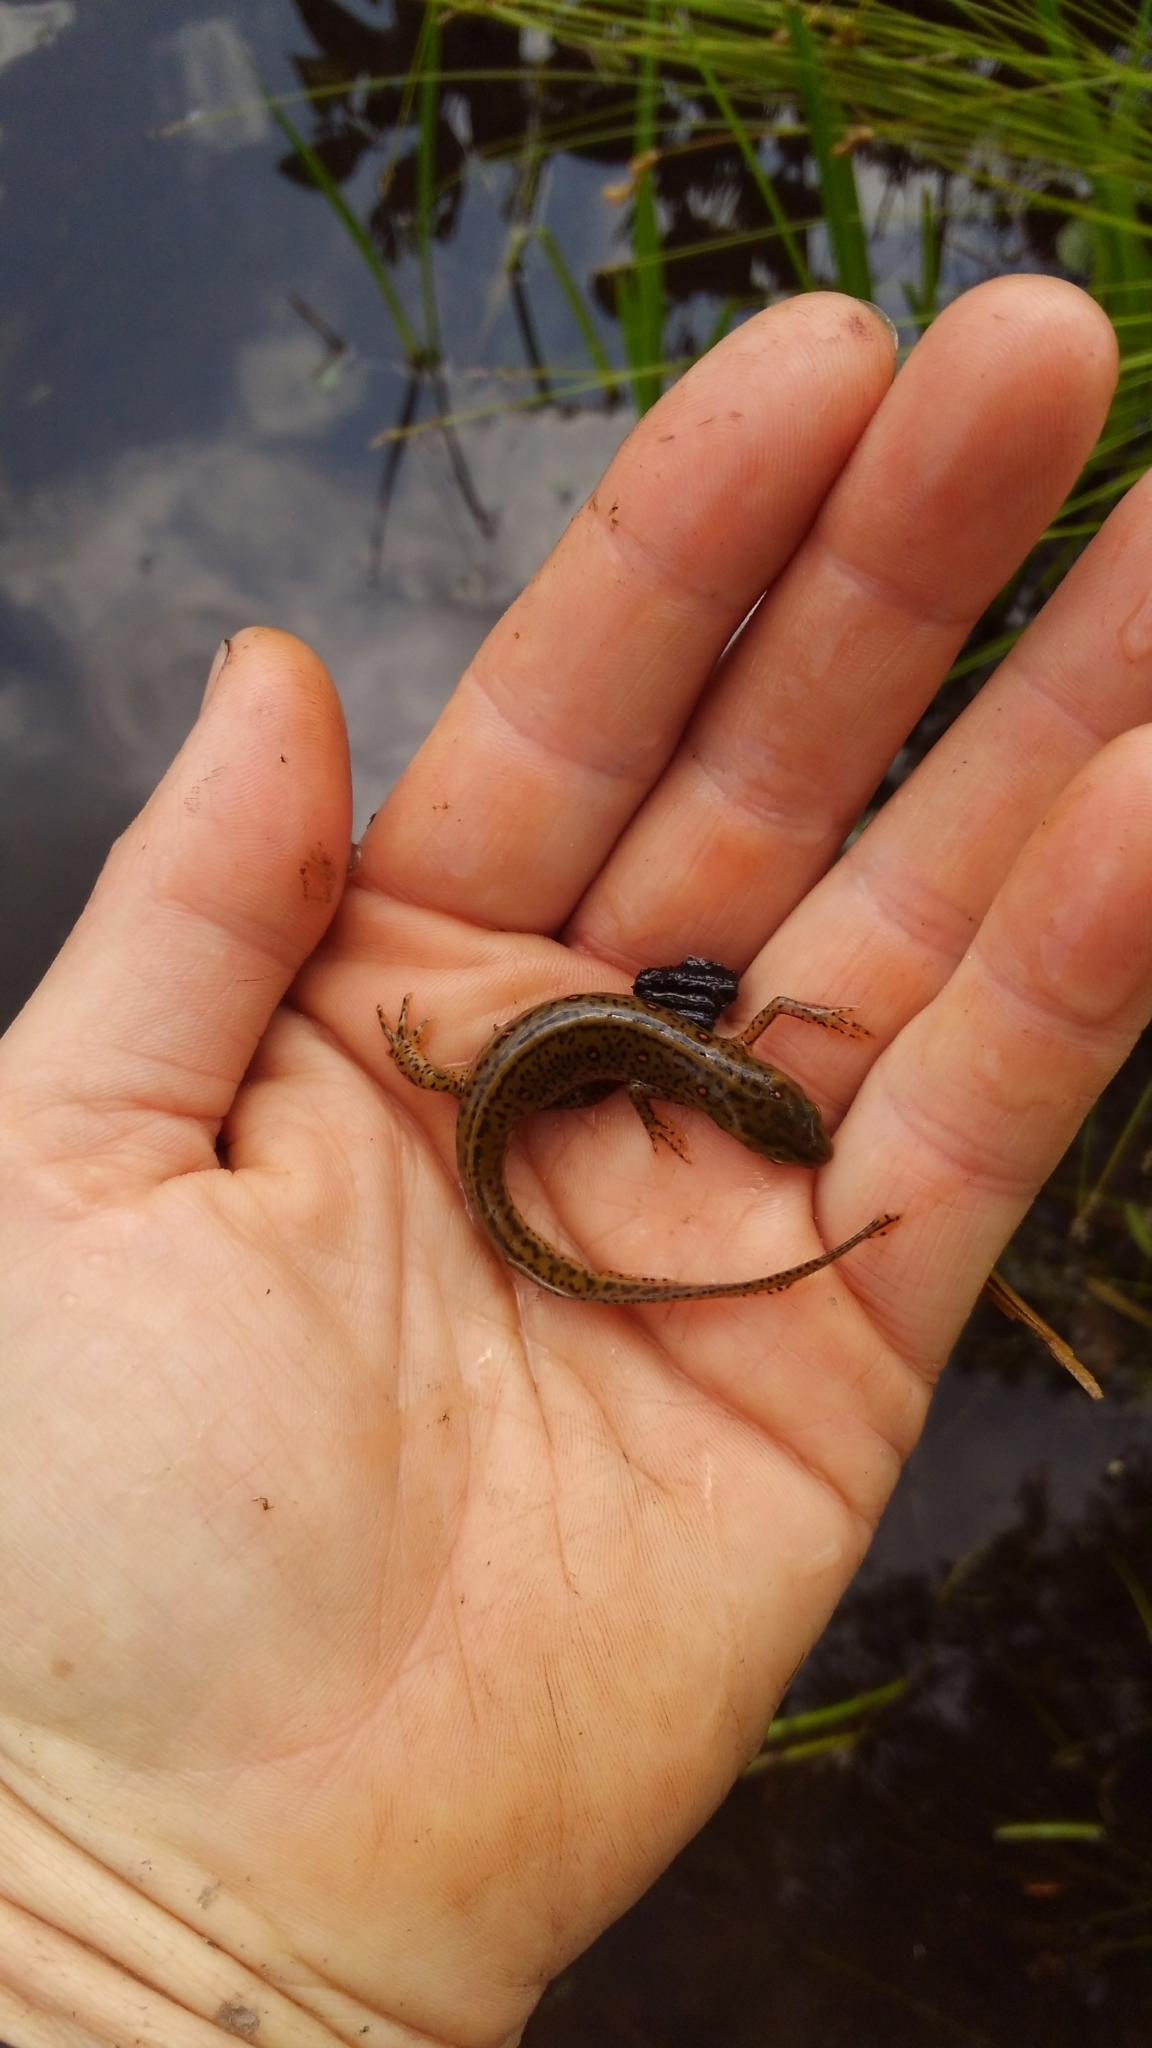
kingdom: Animalia
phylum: Chordata
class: Amphibia
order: Caudata
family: Salamandridae
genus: Notophthalmus
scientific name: Notophthalmus viridescens
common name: Eastern newt
